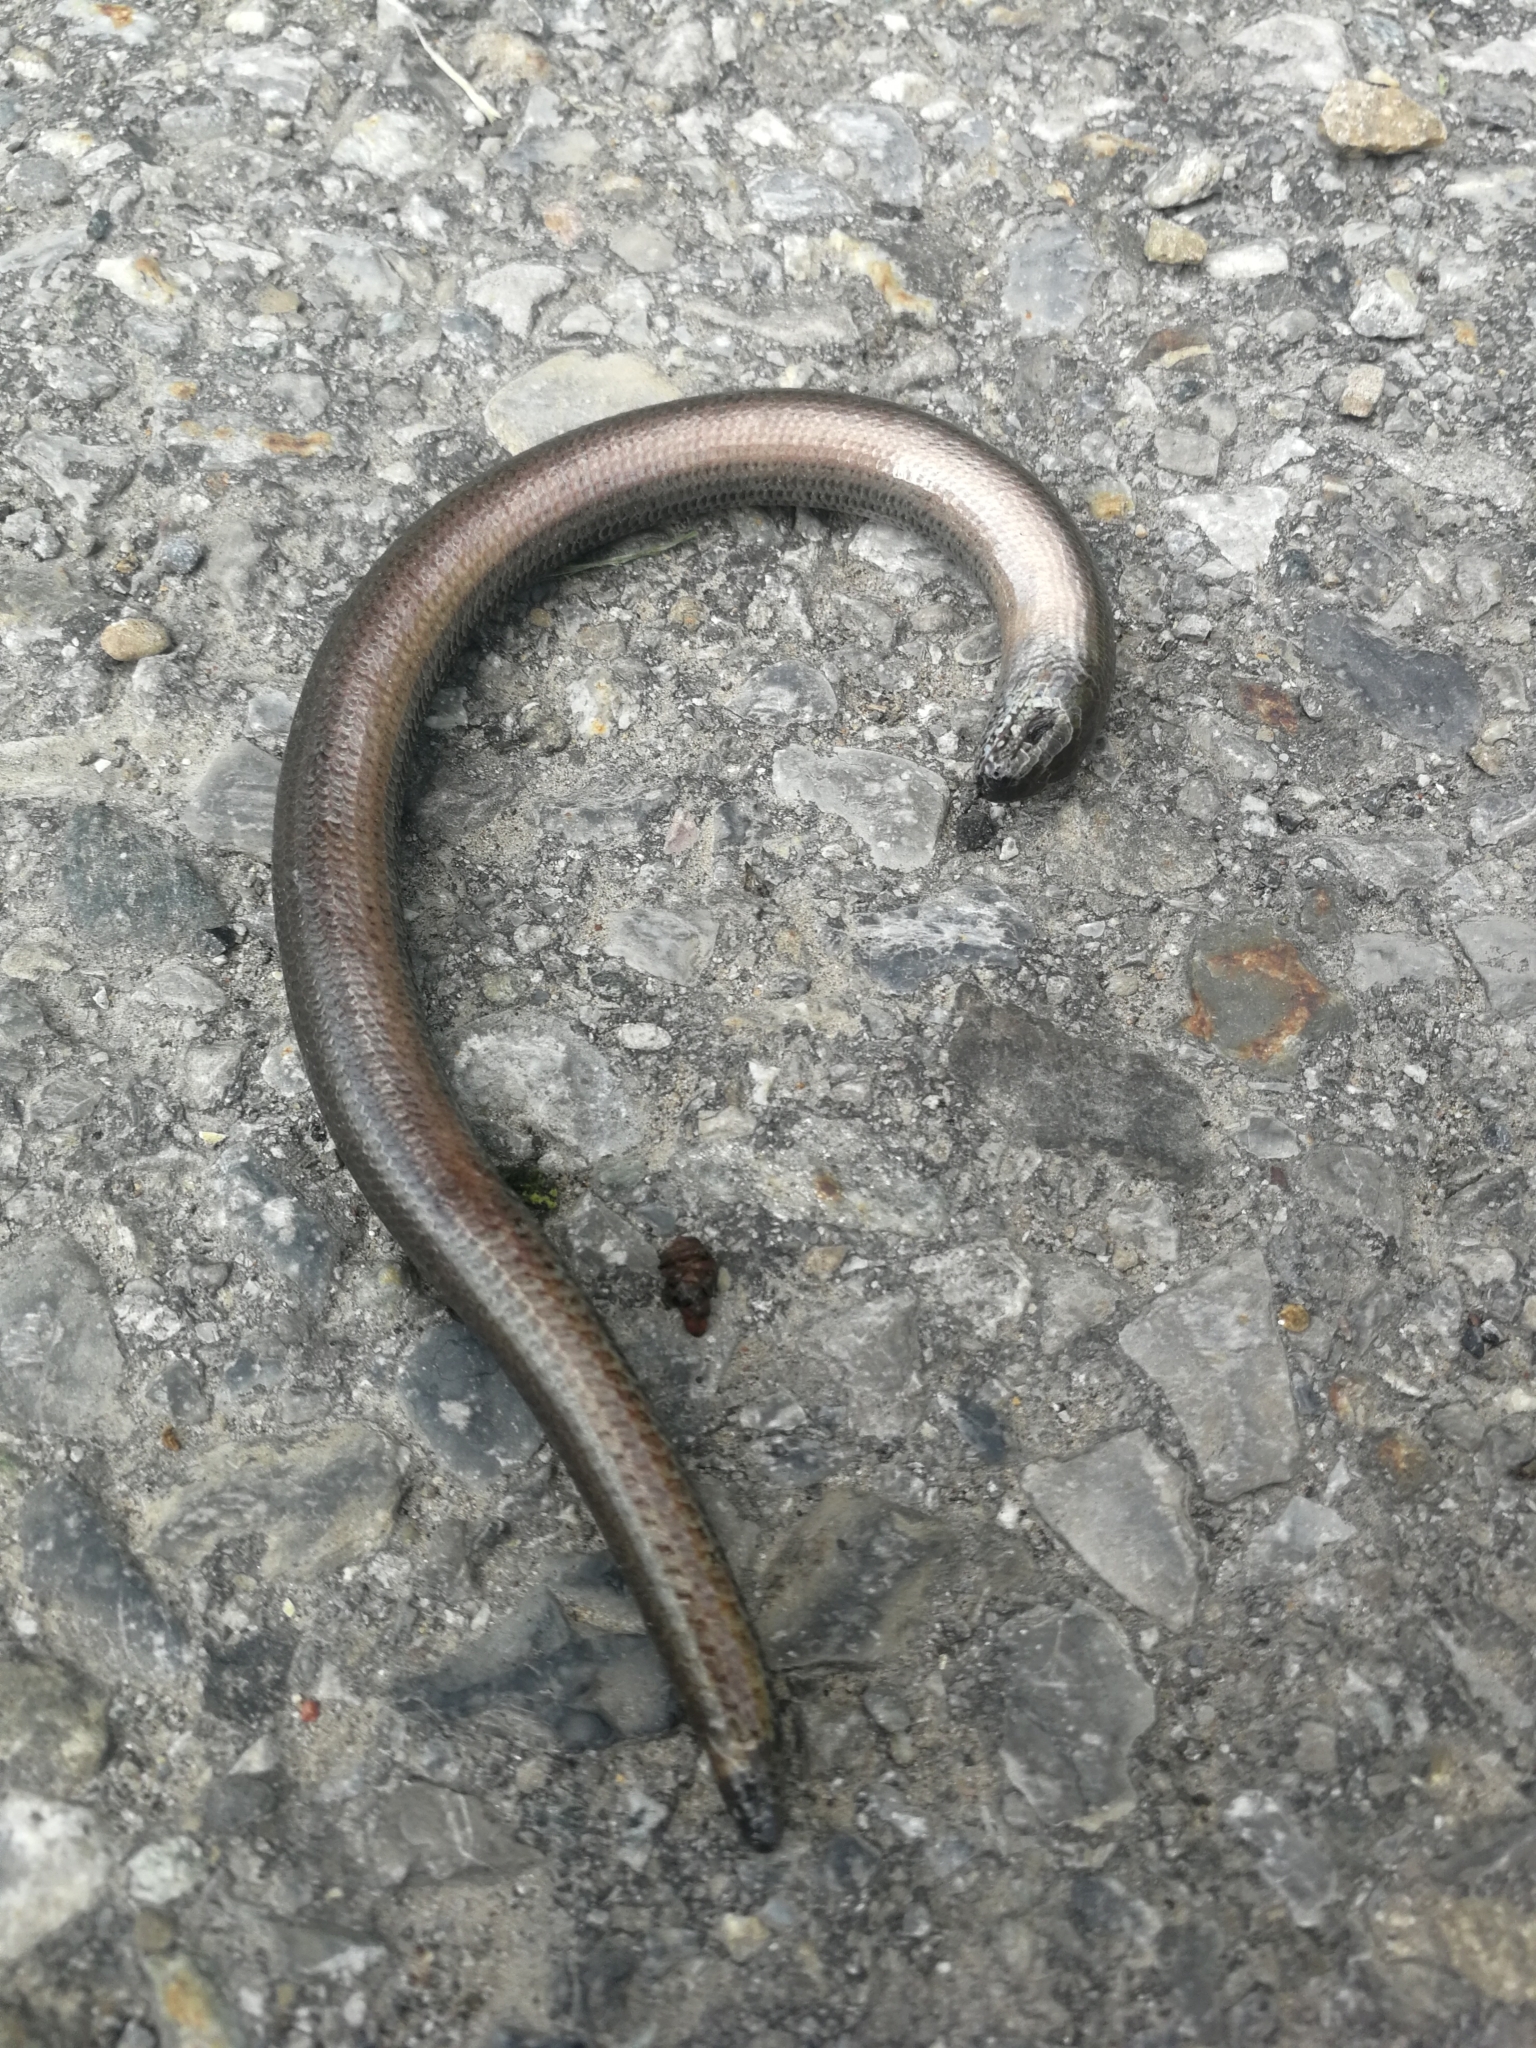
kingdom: Animalia
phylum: Chordata
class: Squamata
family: Anguidae
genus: Anguis
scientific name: Anguis fragilis
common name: Slow worm
